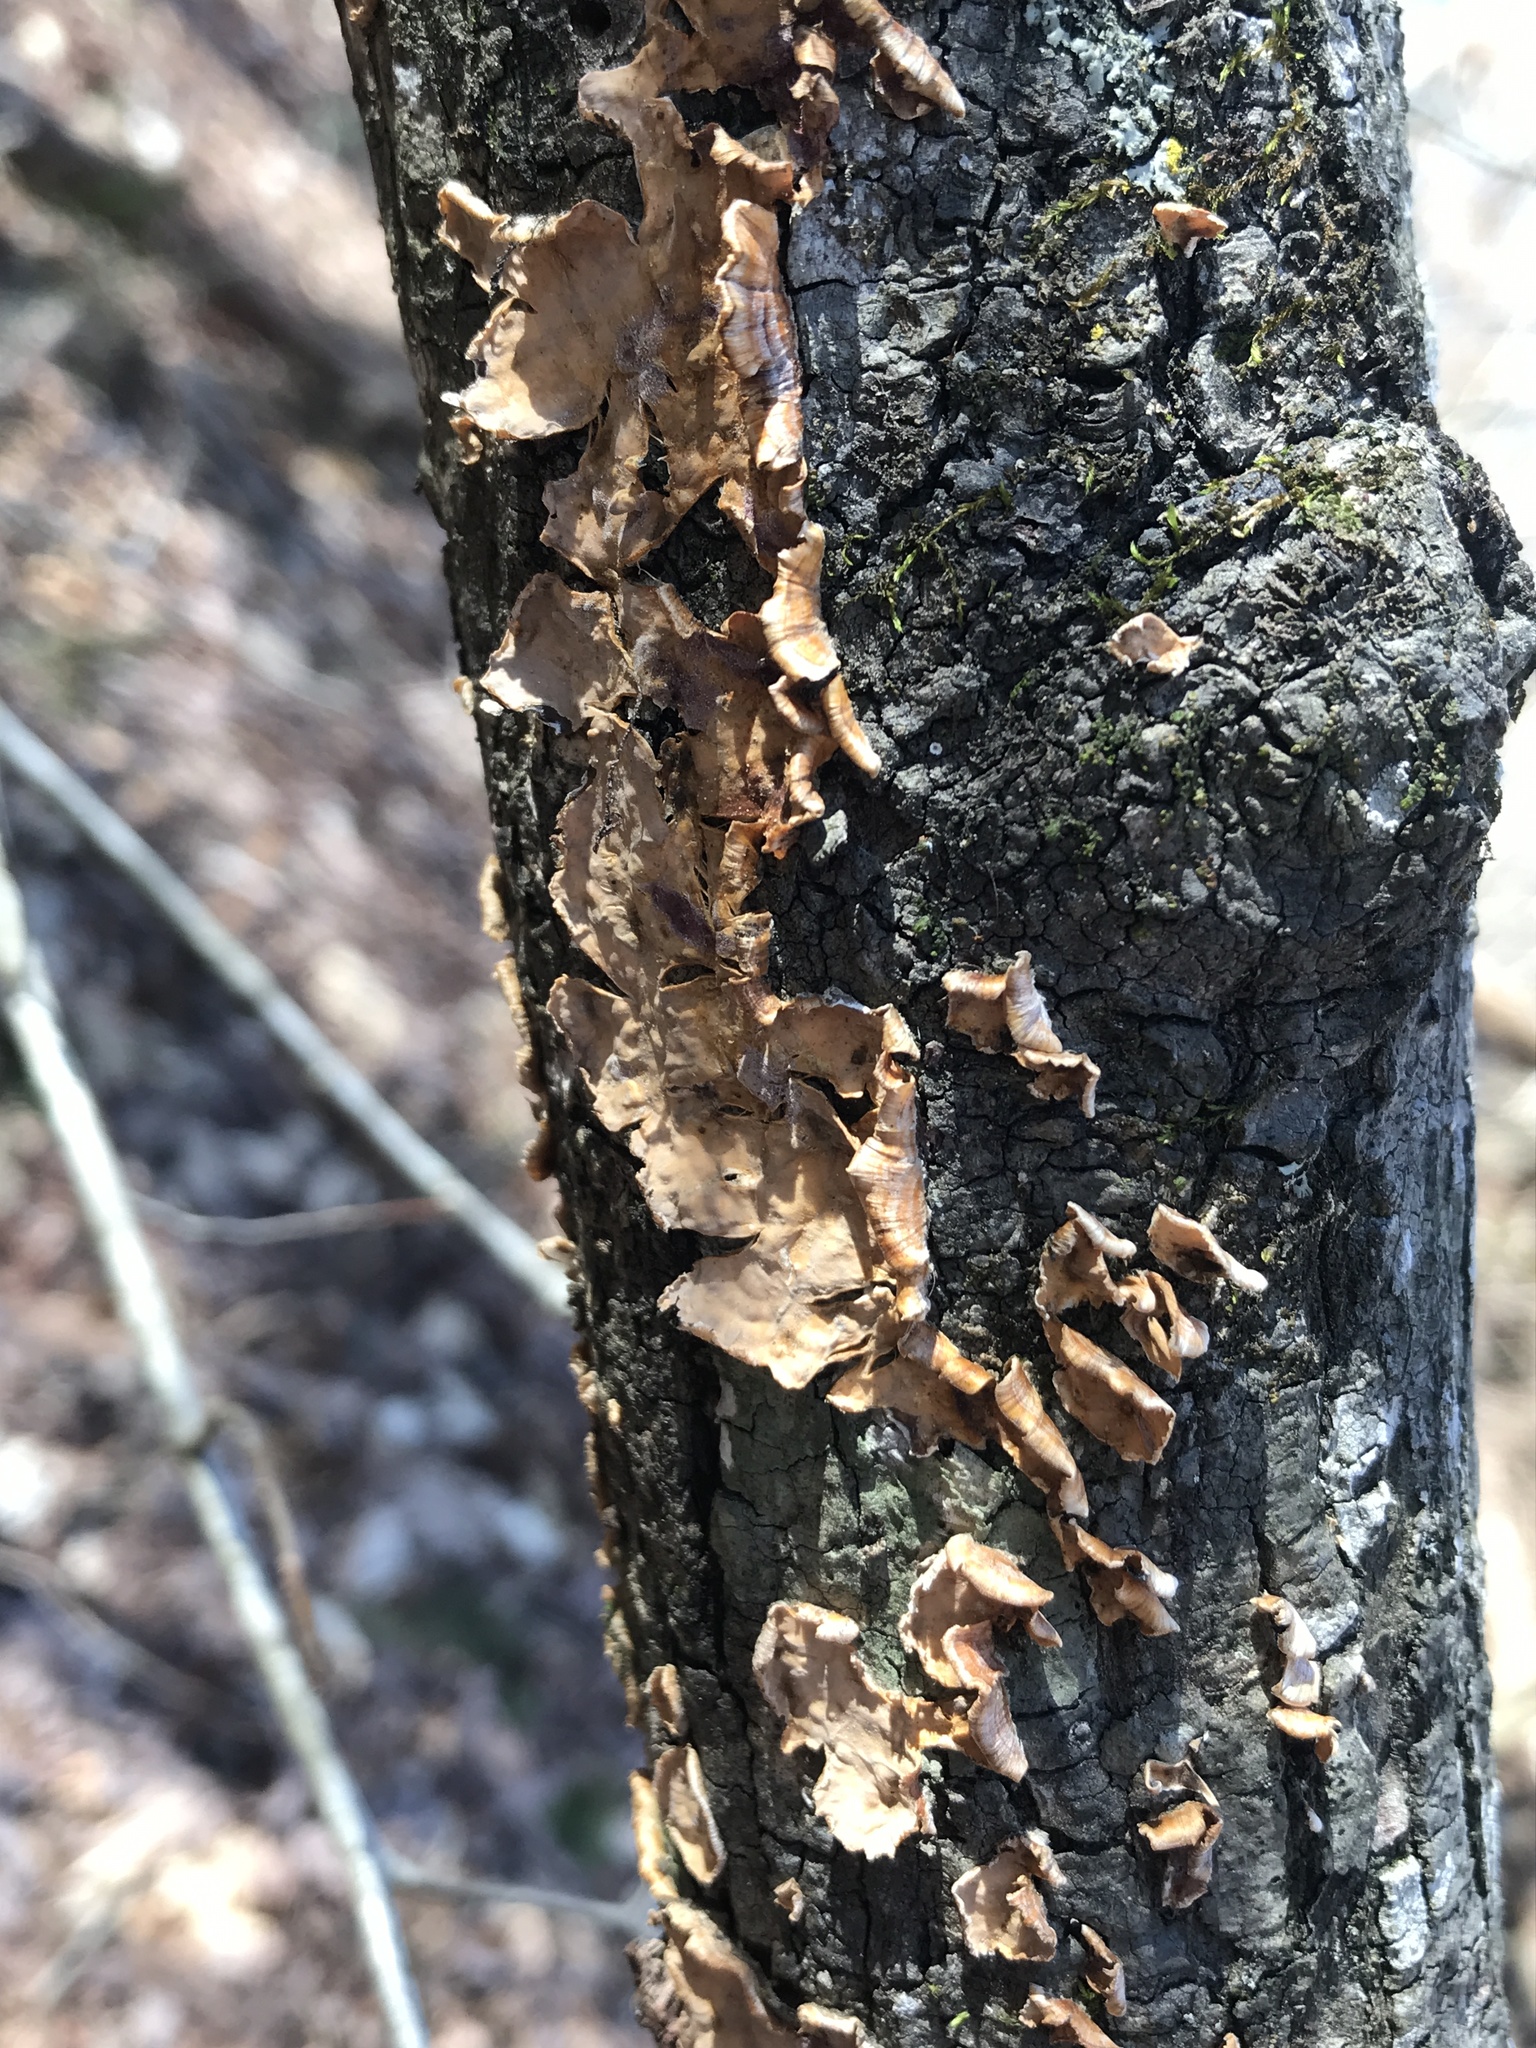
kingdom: Fungi
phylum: Basidiomycota
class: Agaricomycetes
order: Russulales
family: Stereaceae
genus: Stereum
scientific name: Stereum complicatum
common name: Crowded parchment
